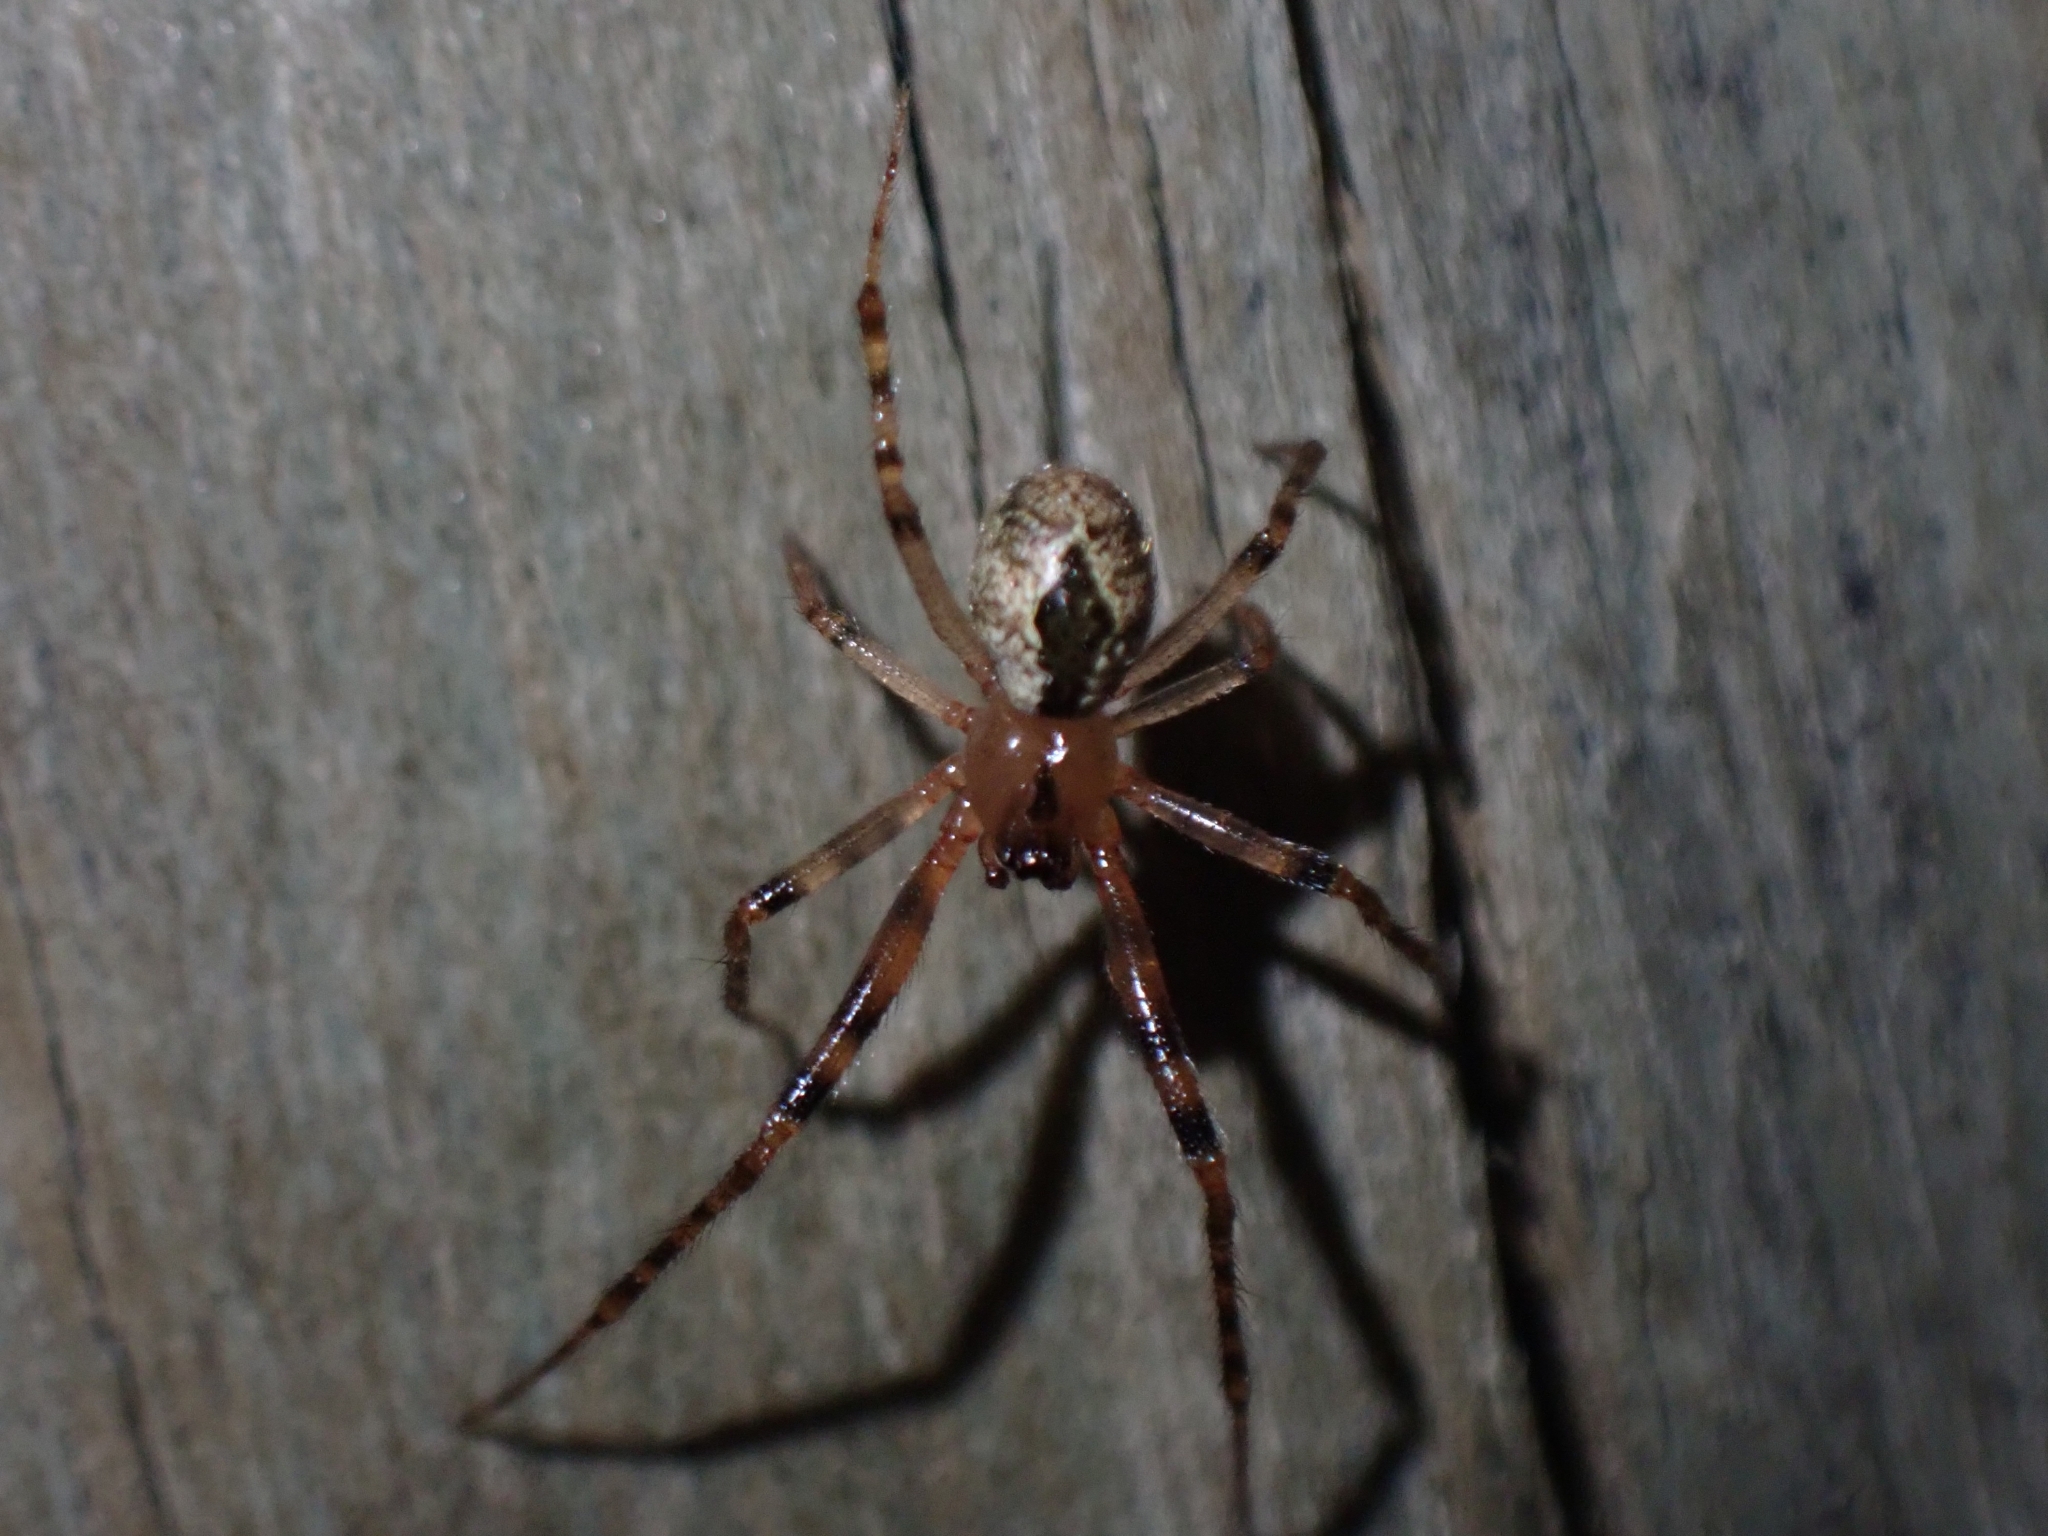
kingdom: Animalia
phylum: Arthropoda
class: Arachnida
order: Araneae
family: Theridiidae
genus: Cryptachaea
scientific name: Cryptachaea veruculata
